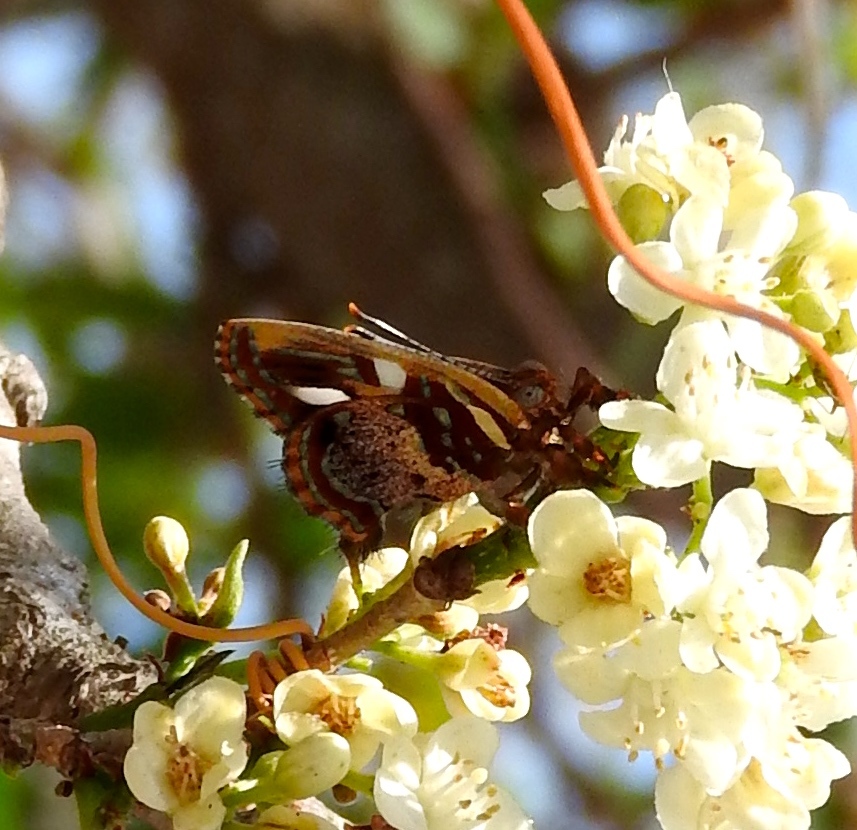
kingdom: Animalia
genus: Anteros
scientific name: Anteros carausius
